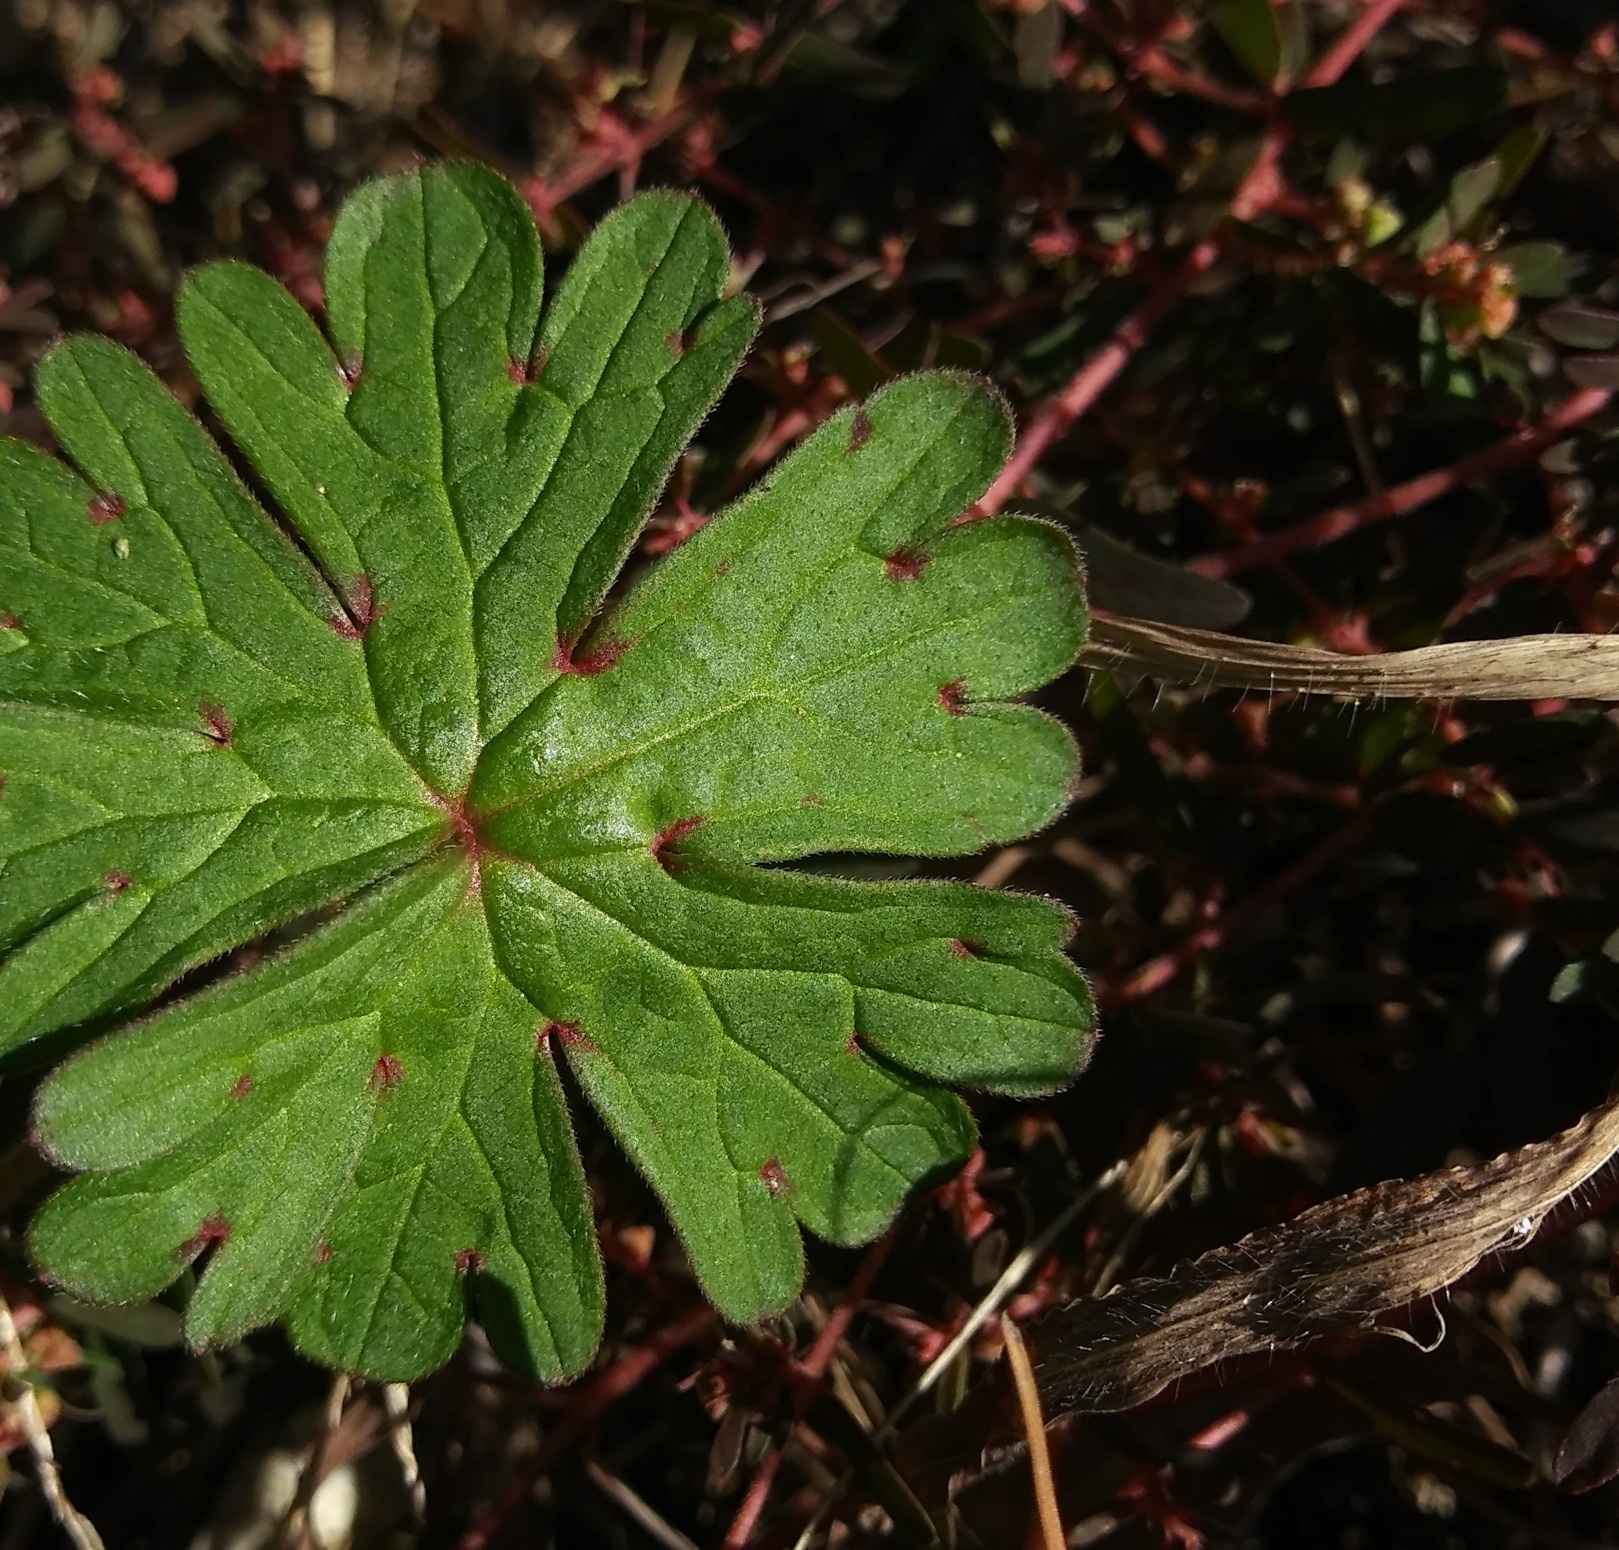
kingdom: Plantae
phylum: Tracheophyta
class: Magnoliopsida
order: Geraniales
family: Geraniaceae
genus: Geranium
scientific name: Geranium carolinianum
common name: Carolina crane's-bill
